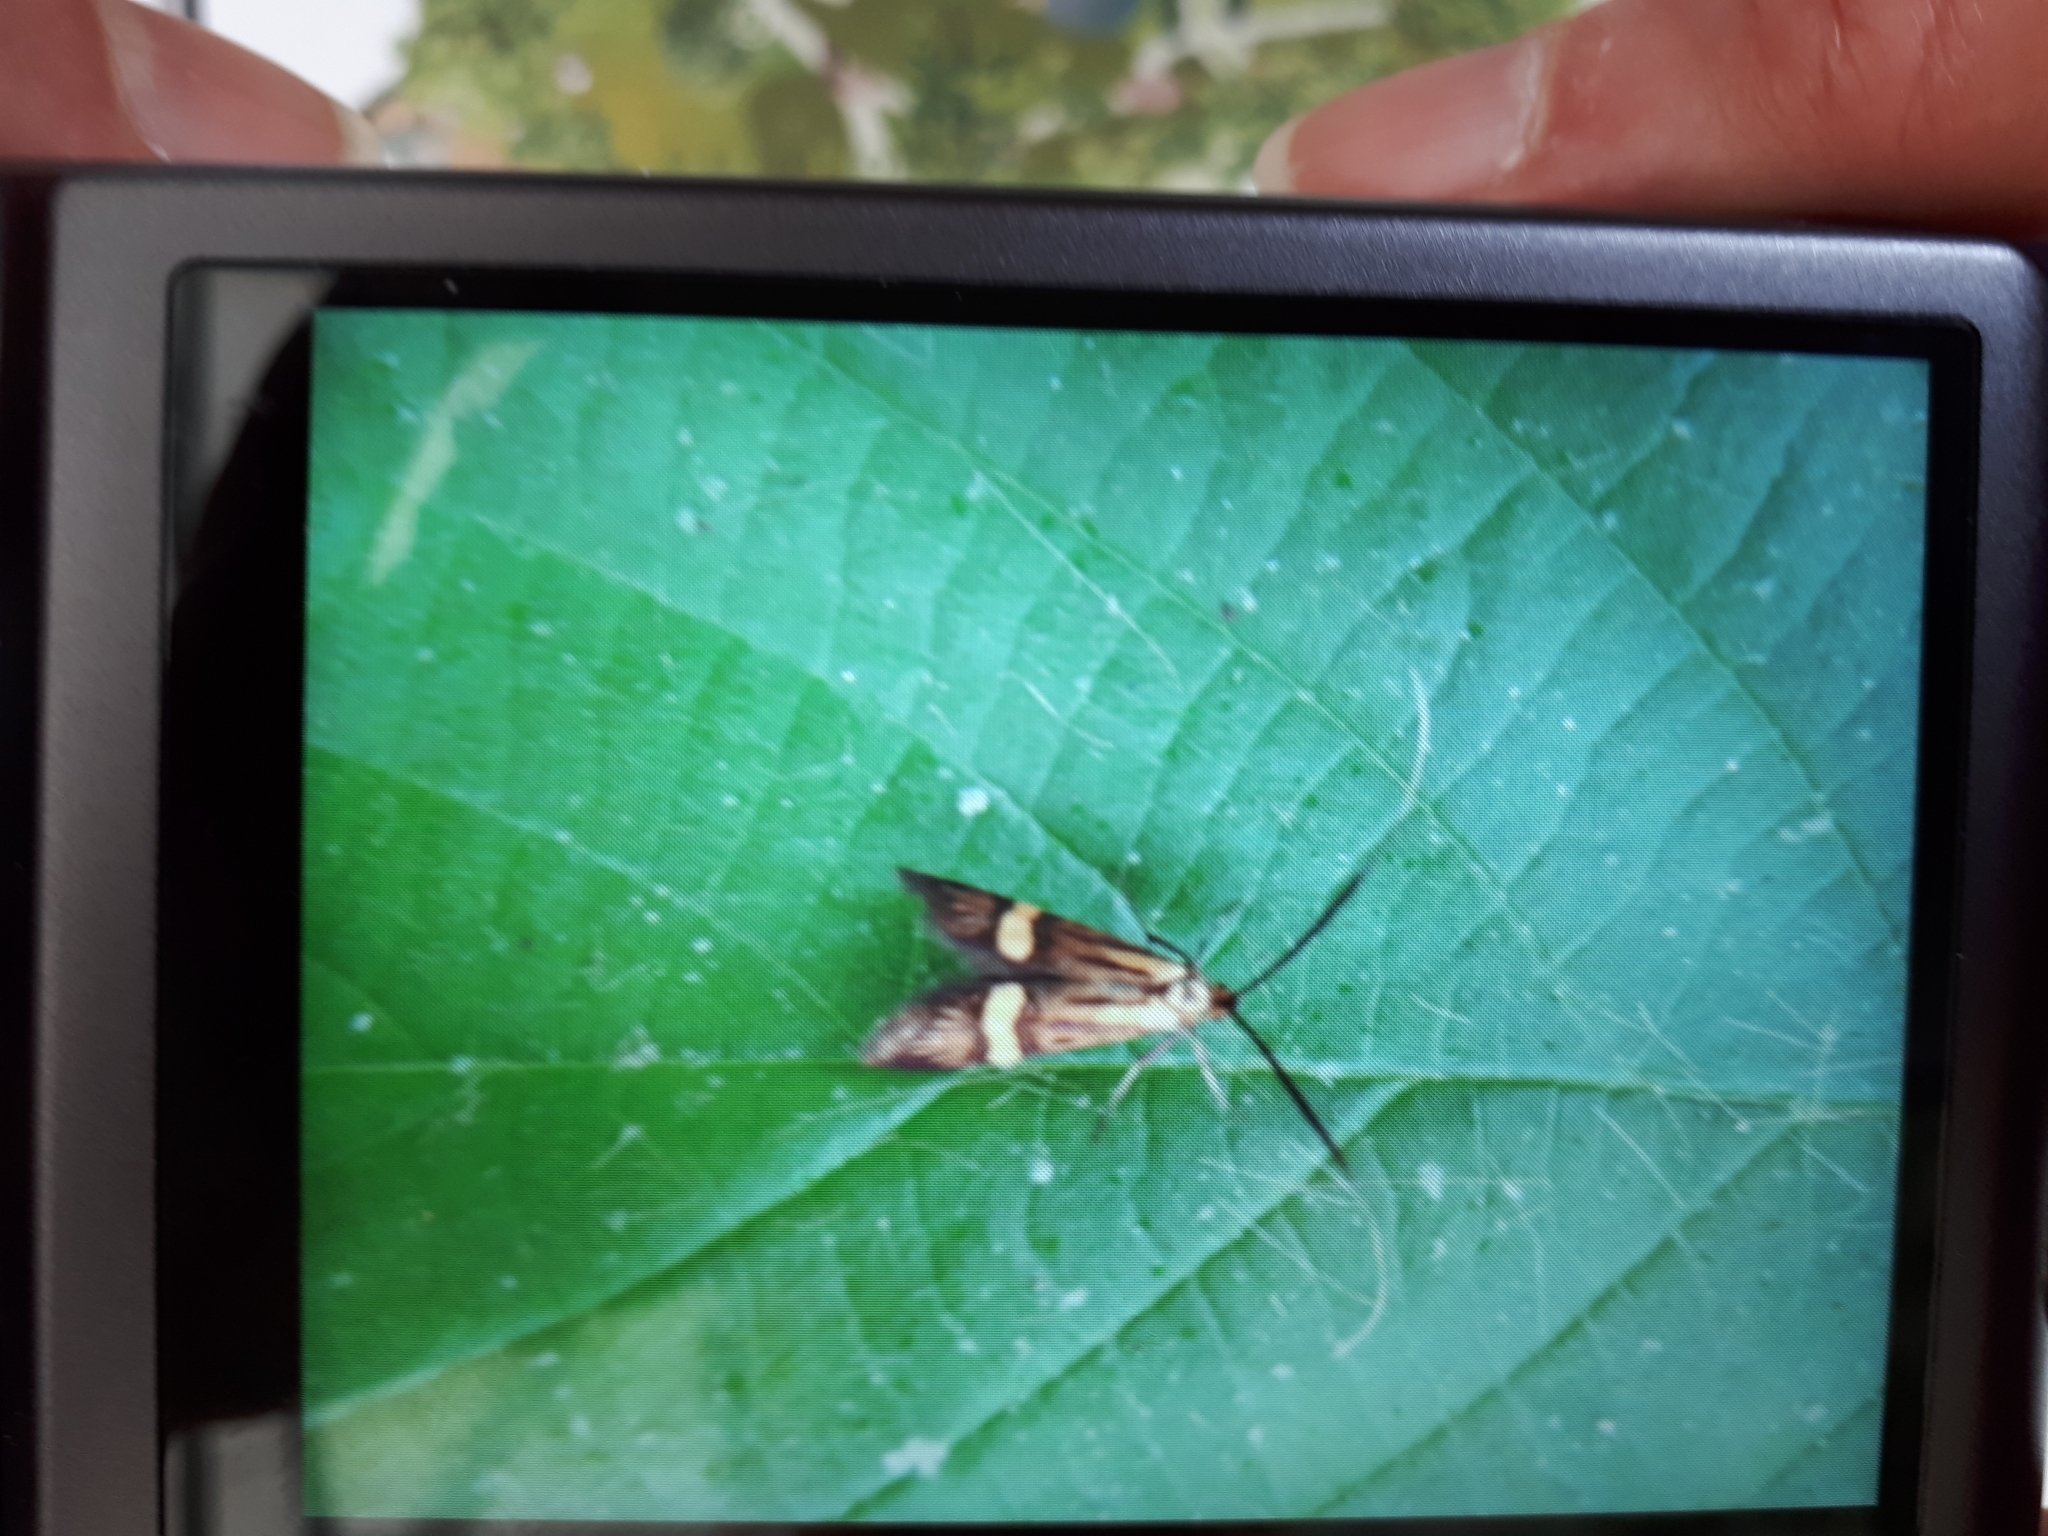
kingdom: Animalia
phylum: Arthropoda
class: Insecta
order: Lepidoptera
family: Adelidae
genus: Nemophora
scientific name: Nemophora degeerella
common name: Yellow-barred long-horn
